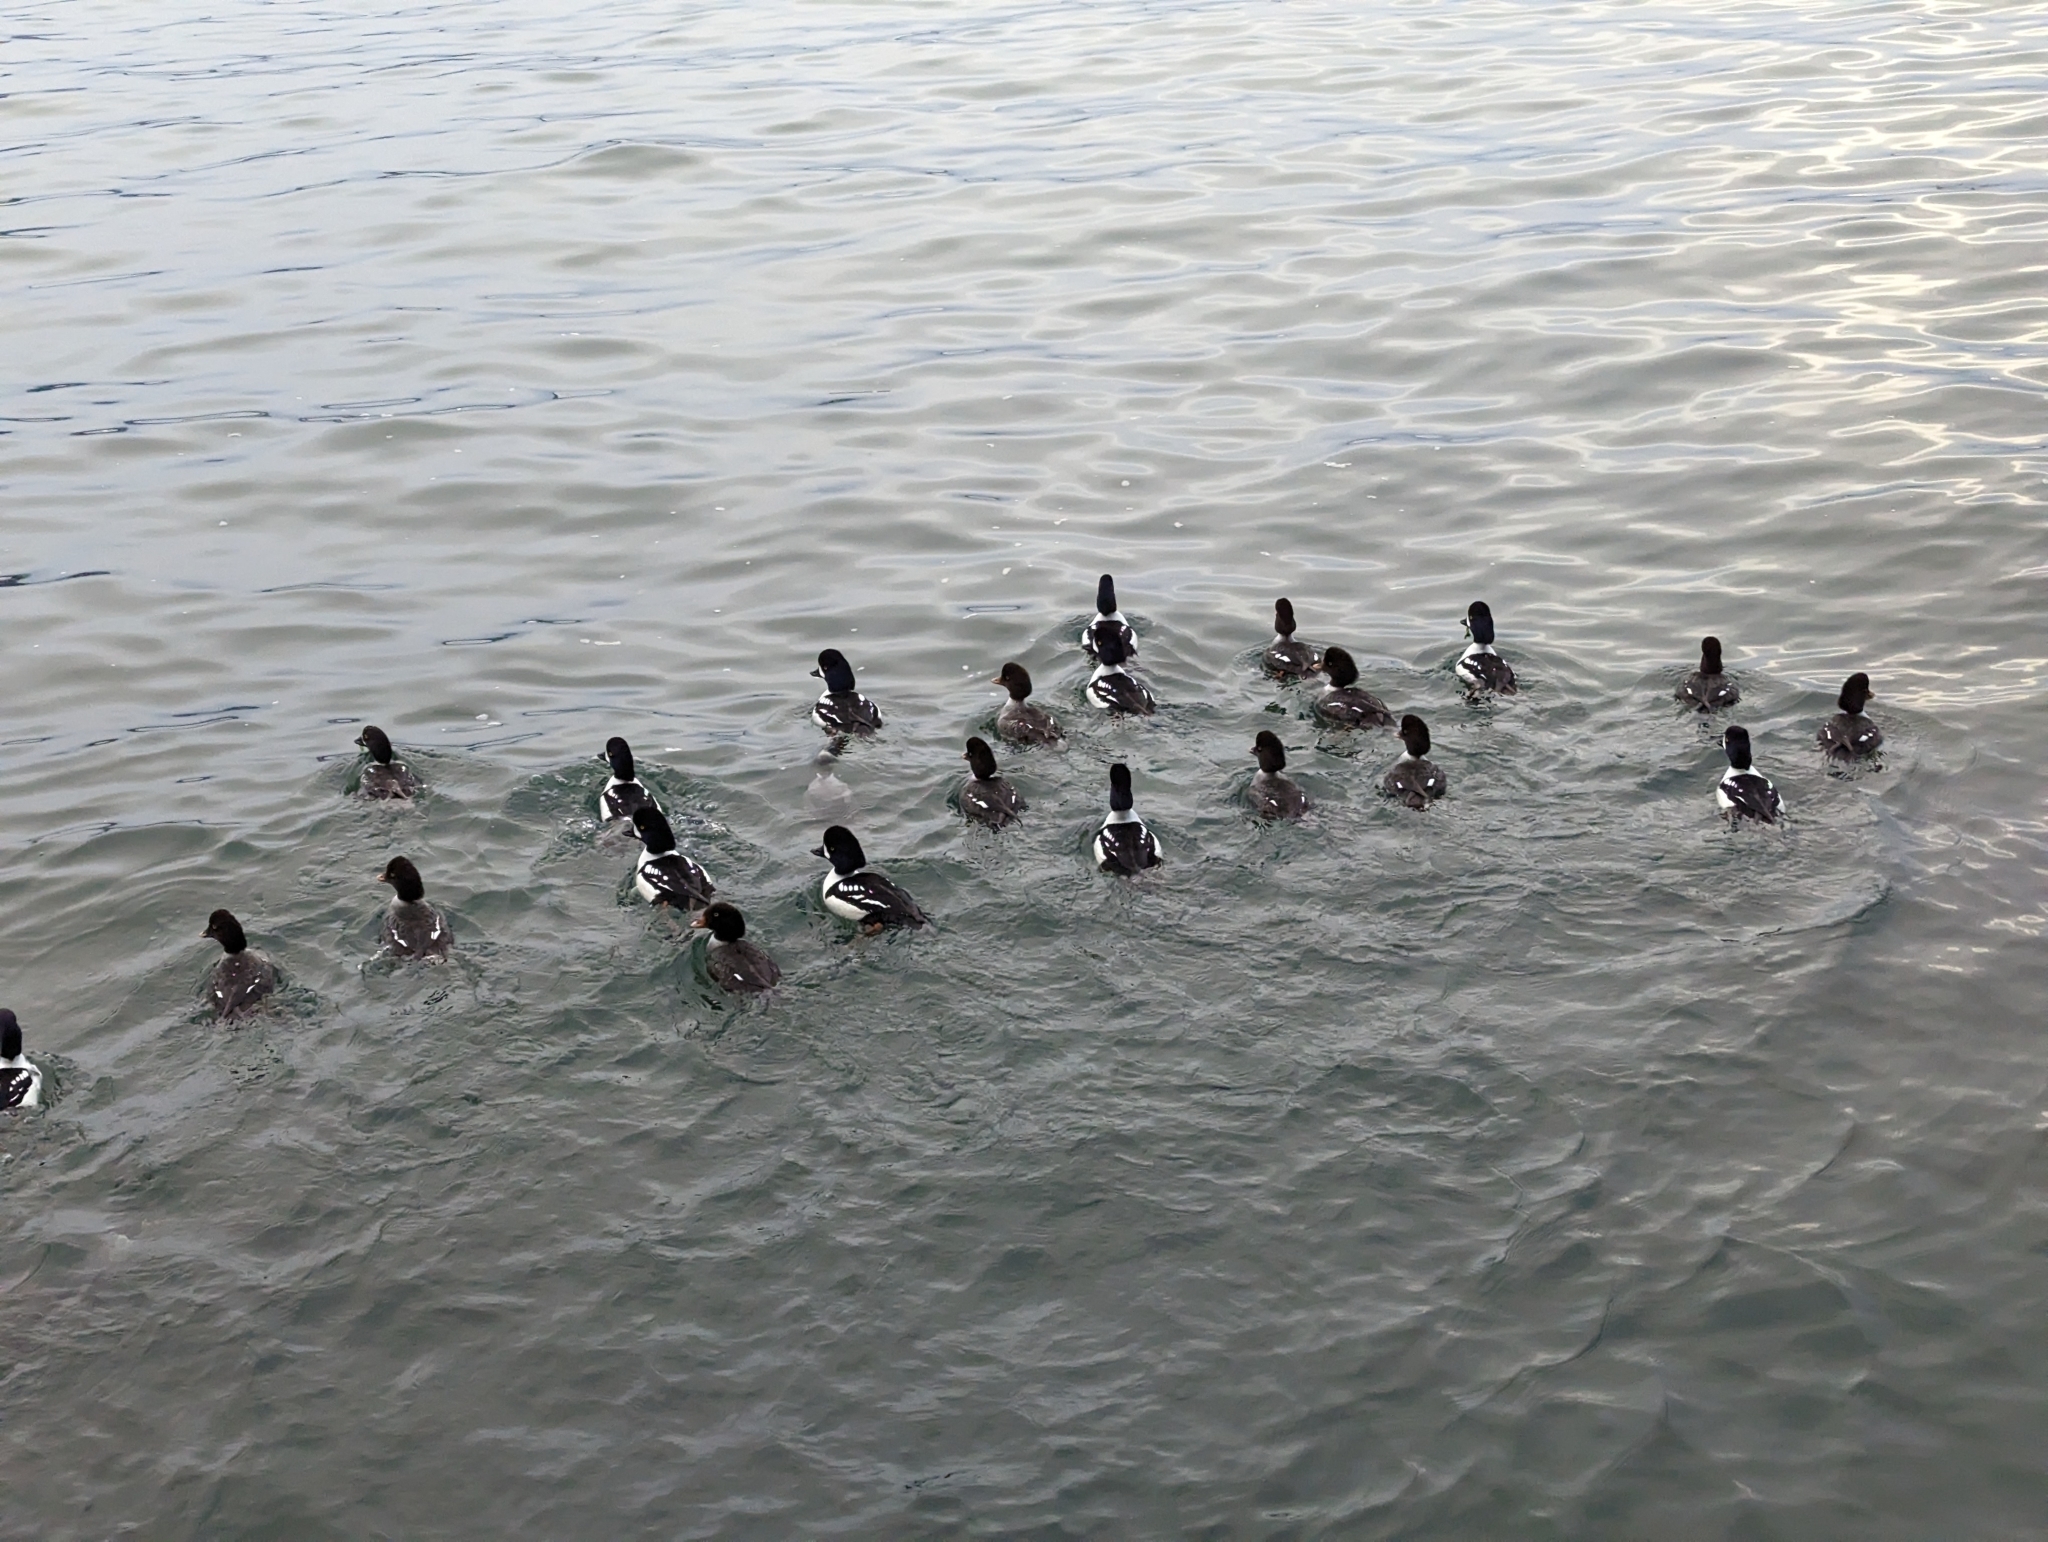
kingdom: Animalia
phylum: Chordata
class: Aves
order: Anseriformes
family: Anatidae
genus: Bucephala
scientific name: Bucephala islandica
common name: Barrow's goldeneye
